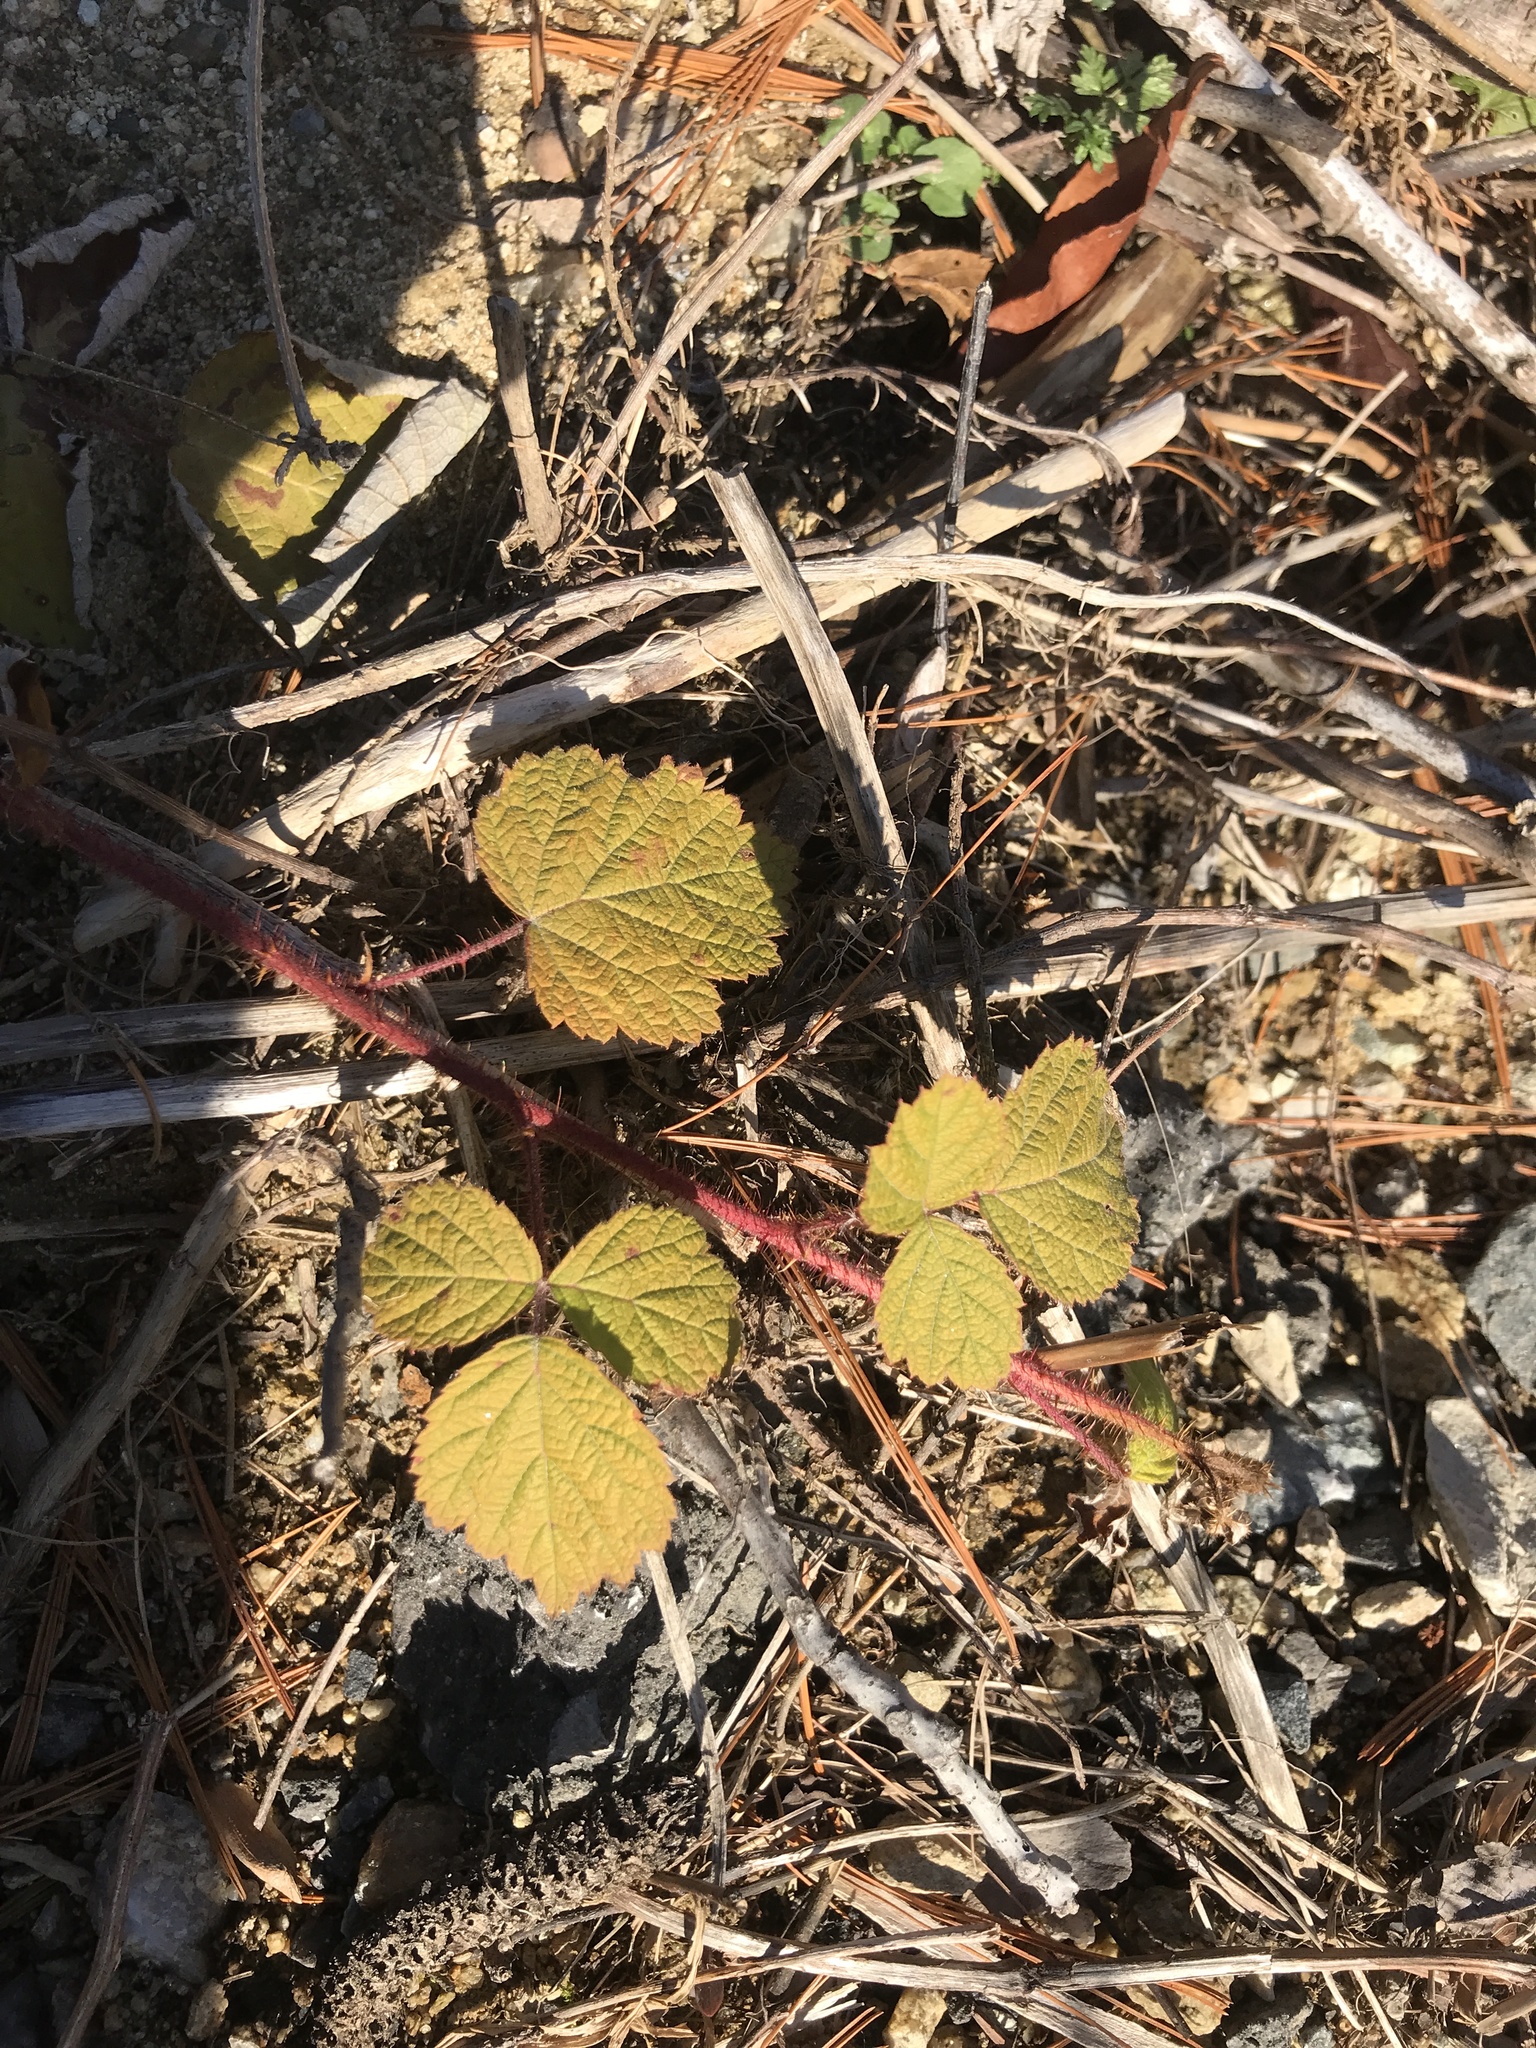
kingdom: Plantae
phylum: Tracheophyta
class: Magnoliopsida
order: Rosales
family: Rosaceae
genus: Rubus
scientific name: Rubus phoenicolasius
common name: Japanese wineberry
